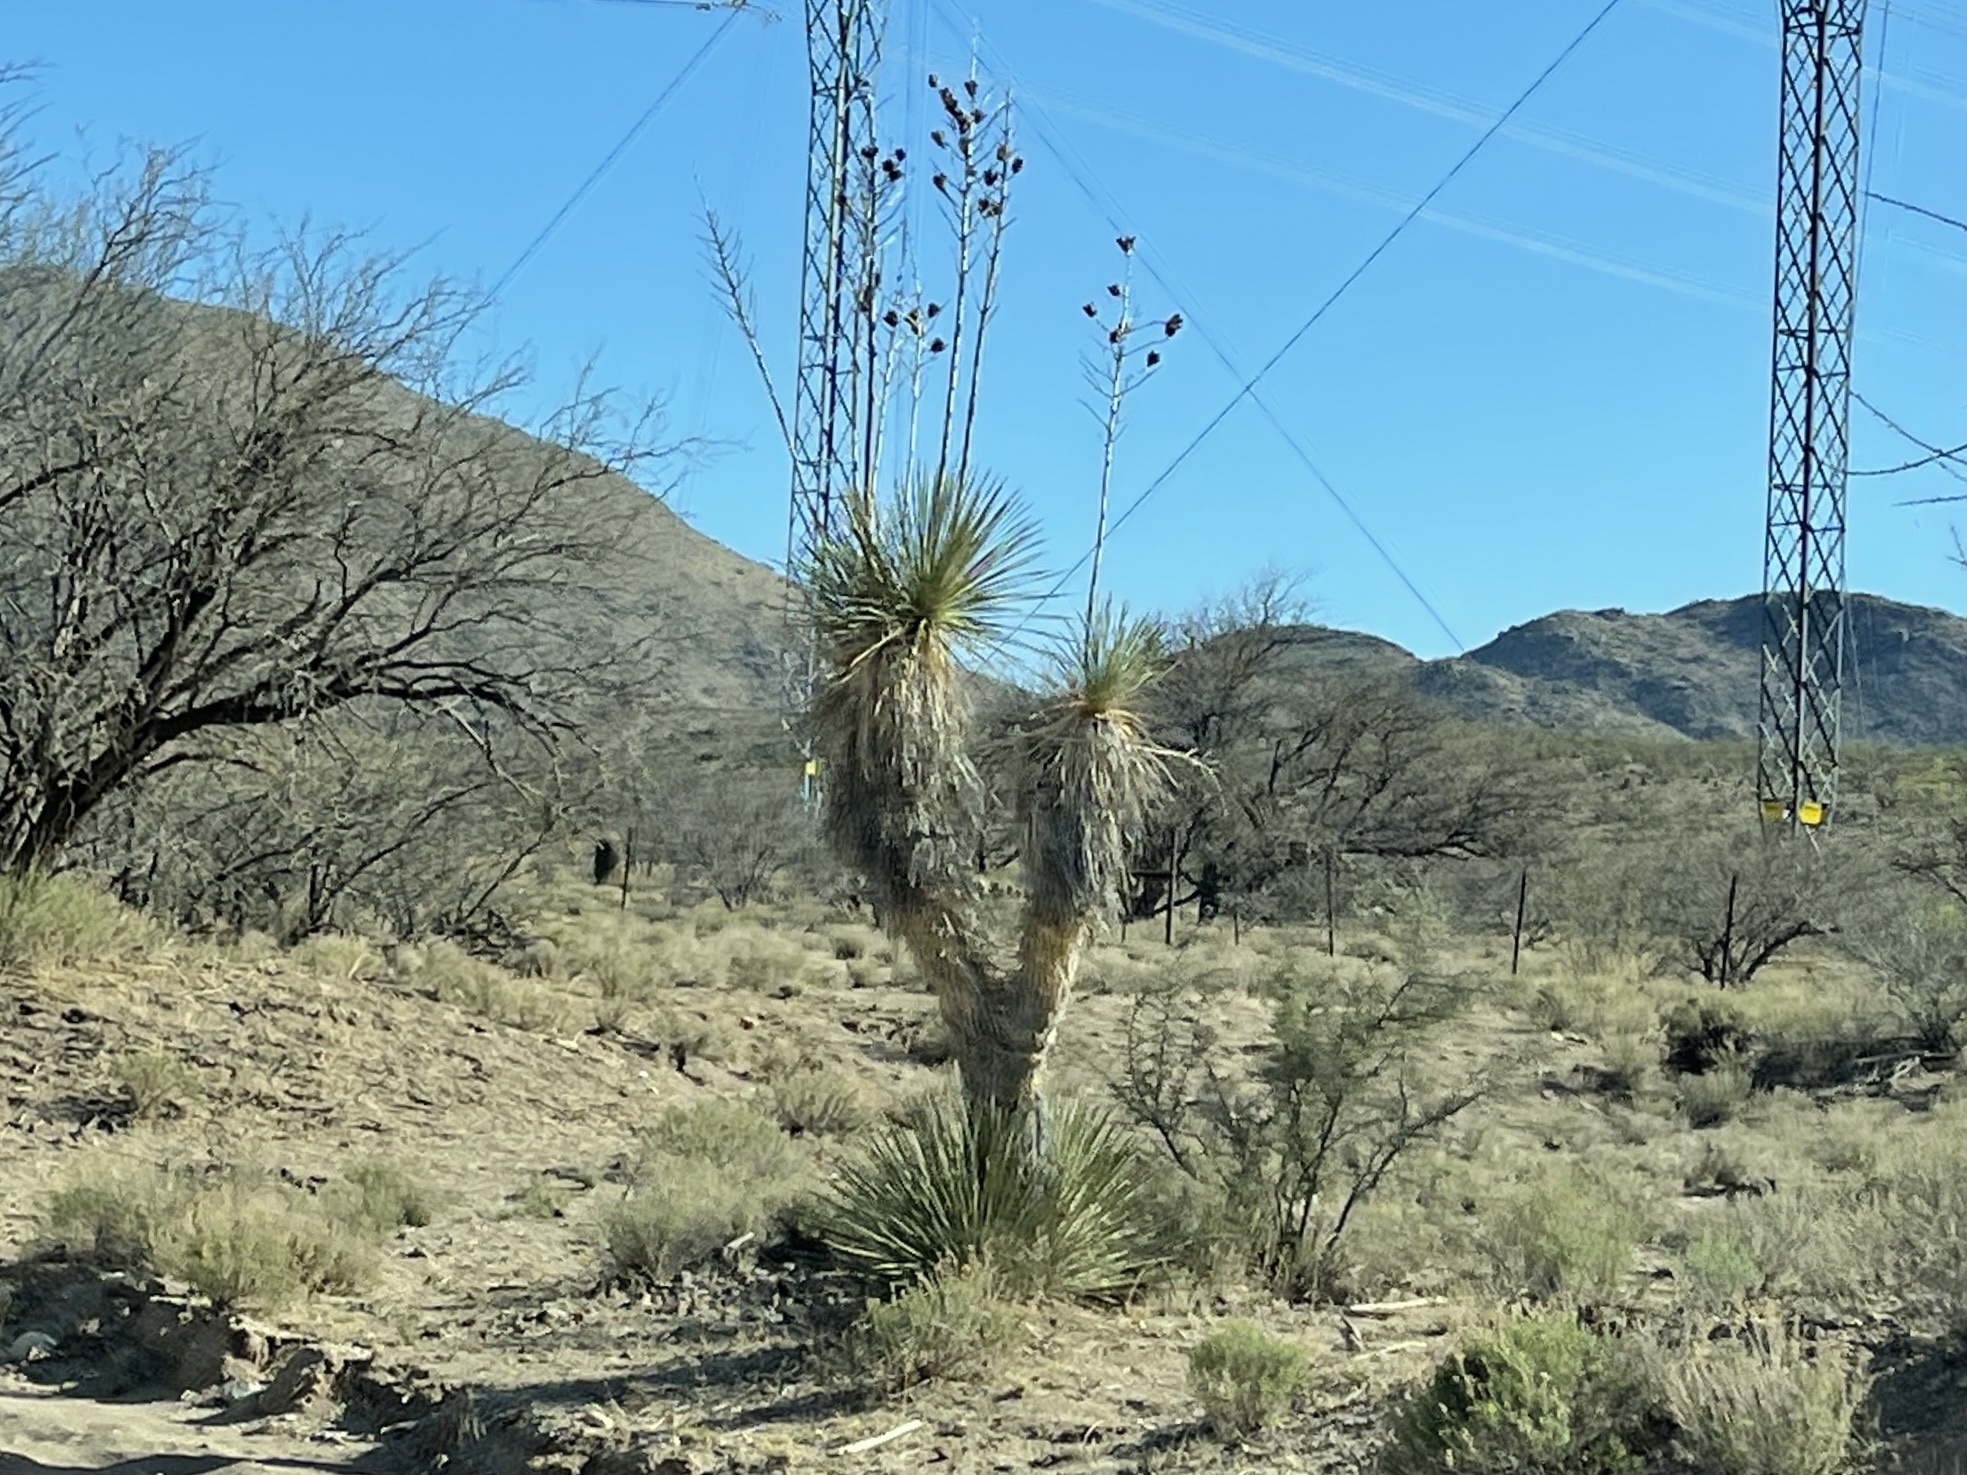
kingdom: Plantae
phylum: Tracheophyta
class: Liliopsida
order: Asparagales
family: Asparagaceae
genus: Yucca
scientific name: Yucca elata
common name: Palmella
